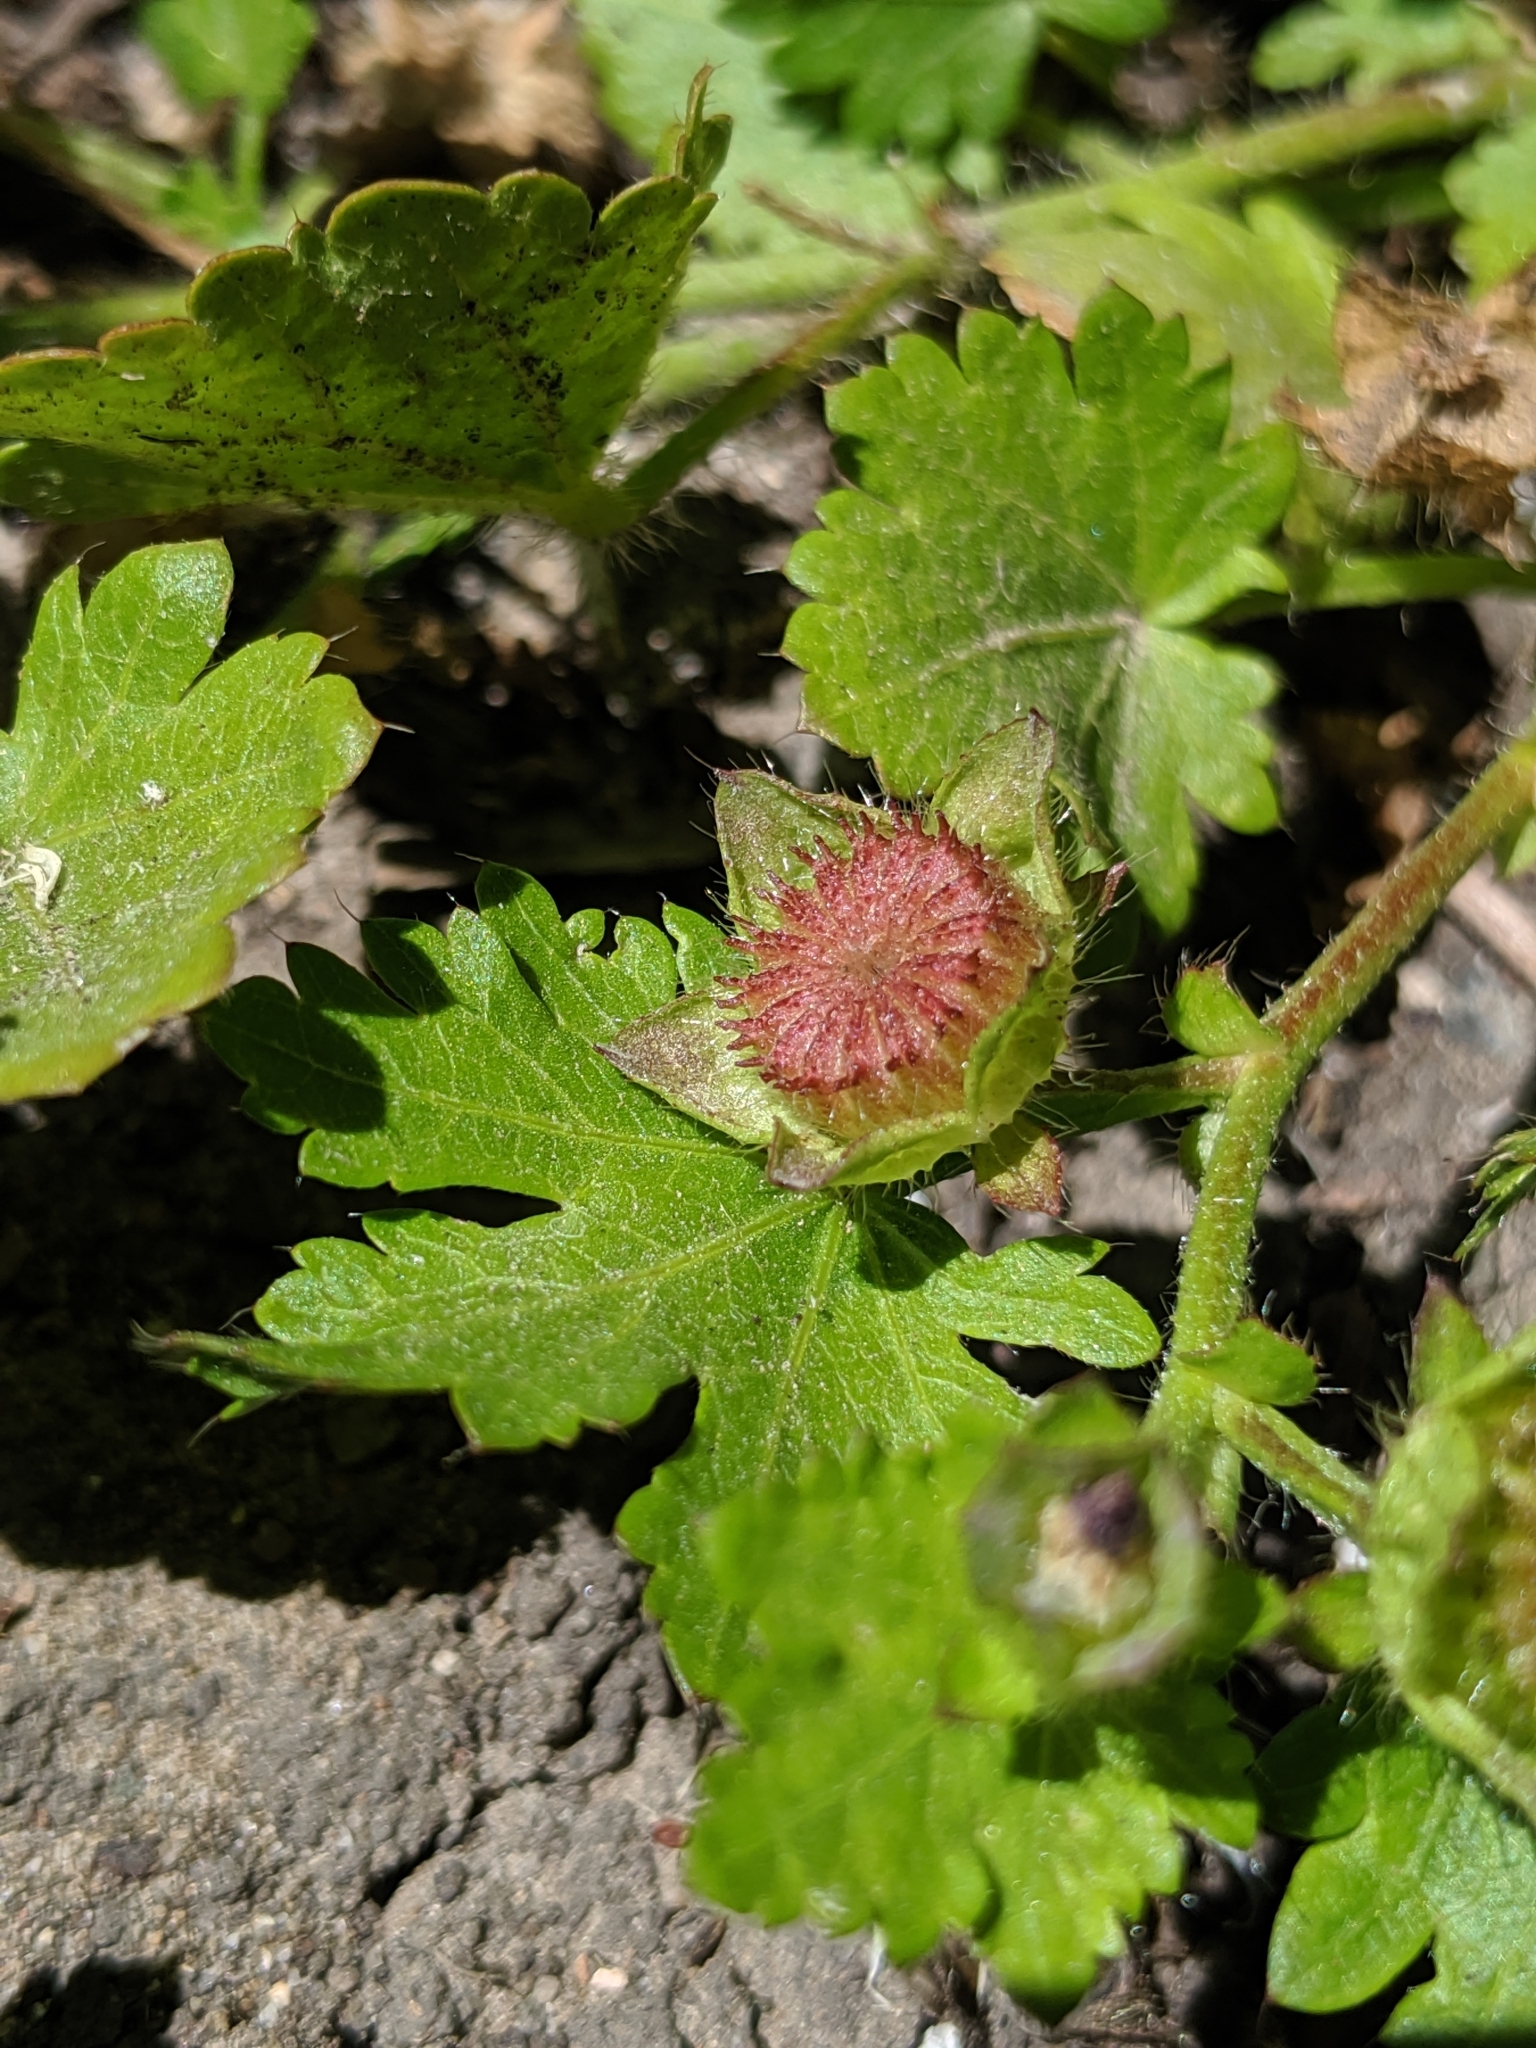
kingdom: Plantae
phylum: Tracheophyta
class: Magnoliopsida
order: Malvales
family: Malvaceae
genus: Modiola
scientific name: Modiola caroliniana
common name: Carolina bristlemallow
